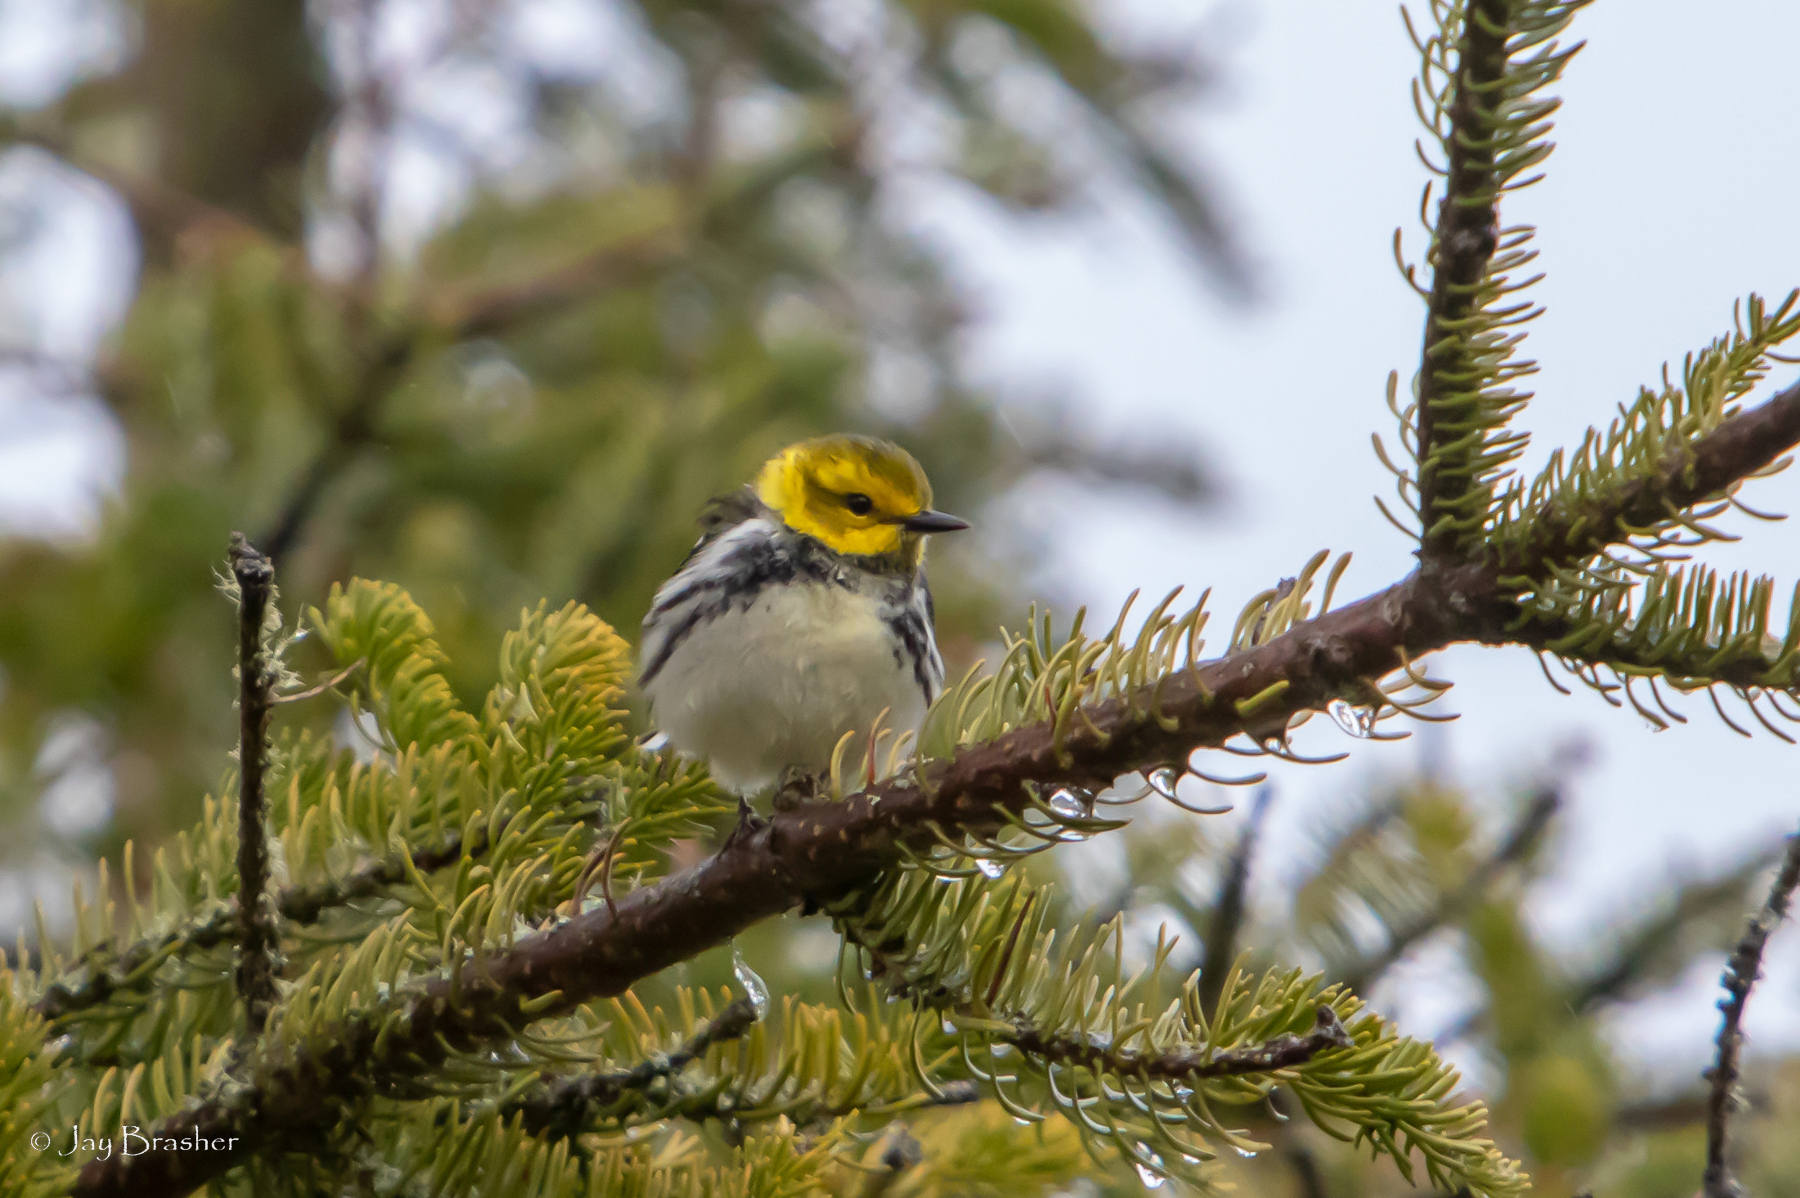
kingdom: Animalia
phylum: Chordata
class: Aves
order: Passeriformes
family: Parulidae
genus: Setophaga
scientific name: Setophaga virens
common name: Black-throated green warbler
